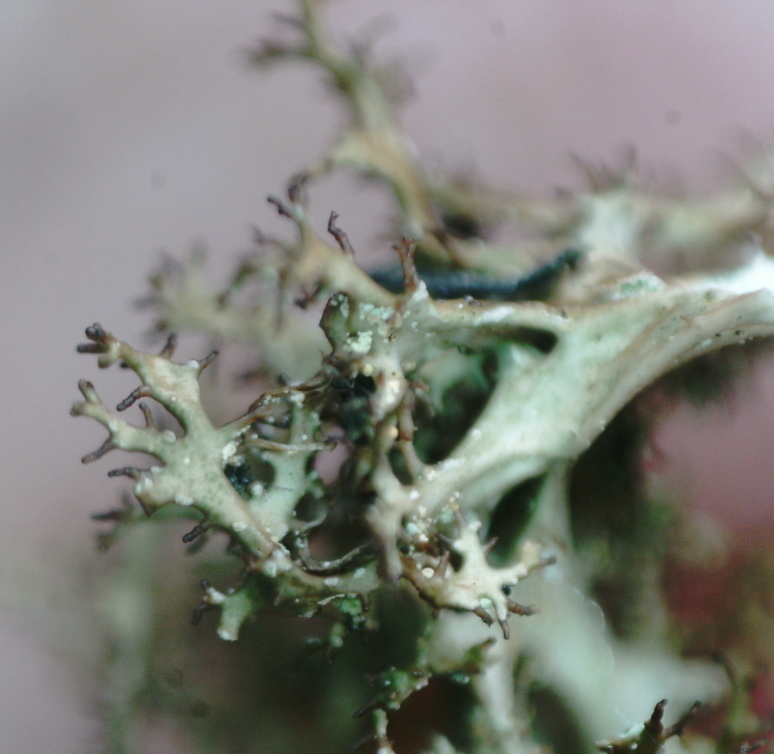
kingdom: Fungi
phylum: Ascomycota
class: Lecanoromycetes
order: Lecanorales
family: Parmeliaceae
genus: Cetraria
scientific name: Cetraria odontella
